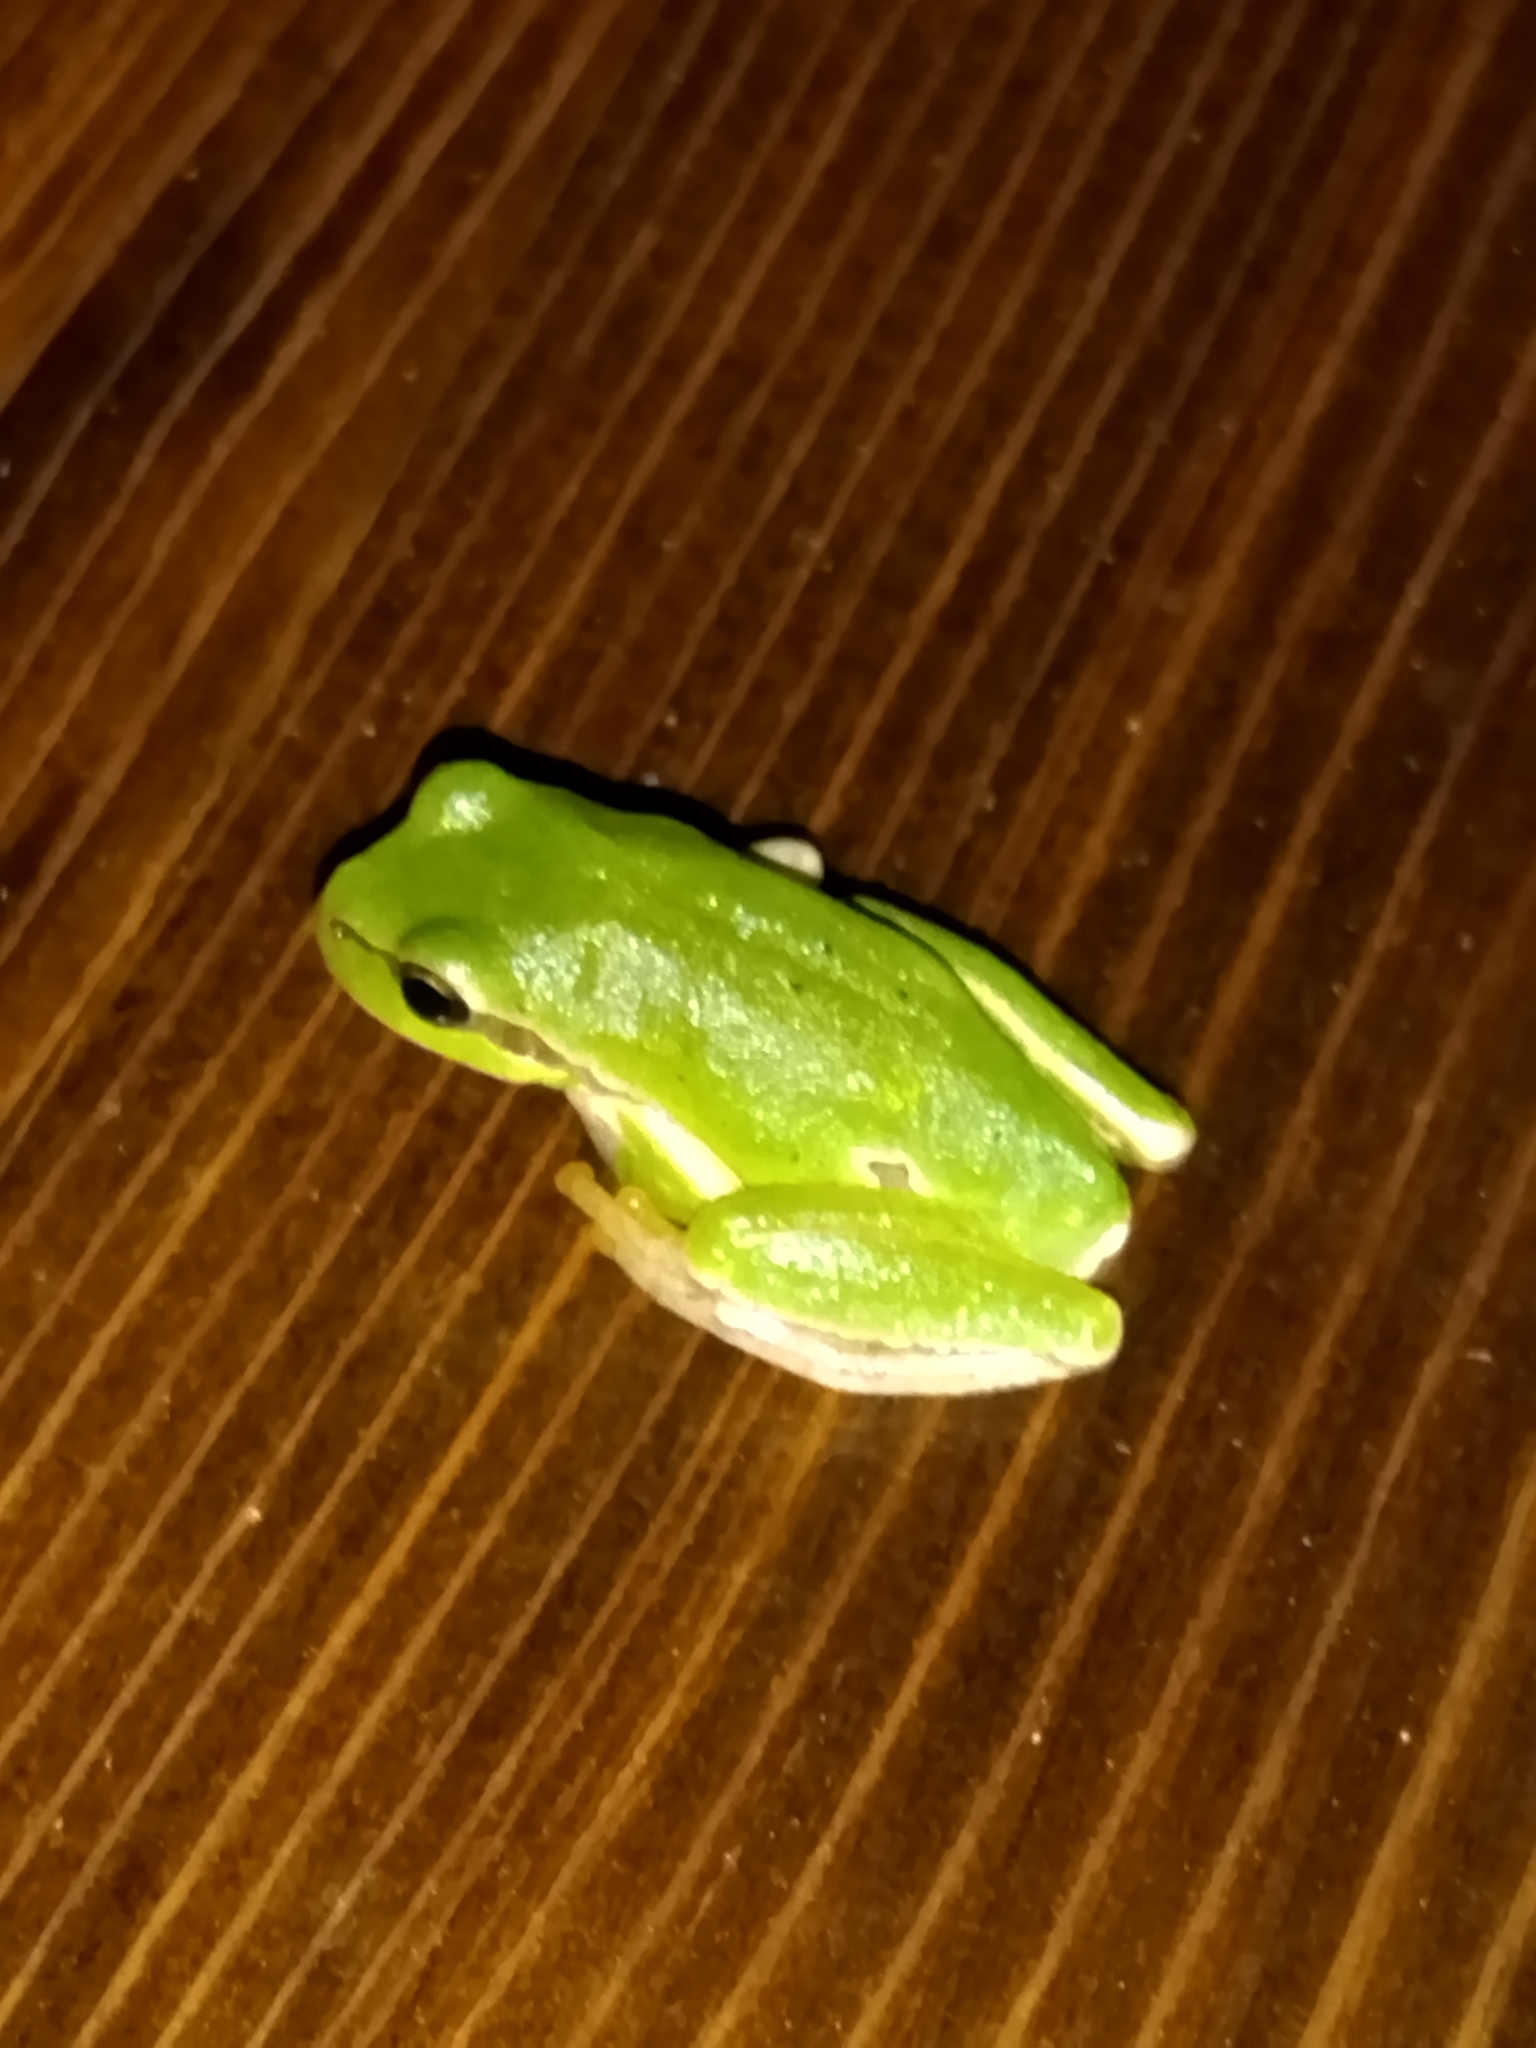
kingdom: Animalia
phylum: Chordata
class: Amphibia
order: Anura
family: Hylidae
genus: Hyla
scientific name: Hyla orientalis
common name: Caucasian treefrog
